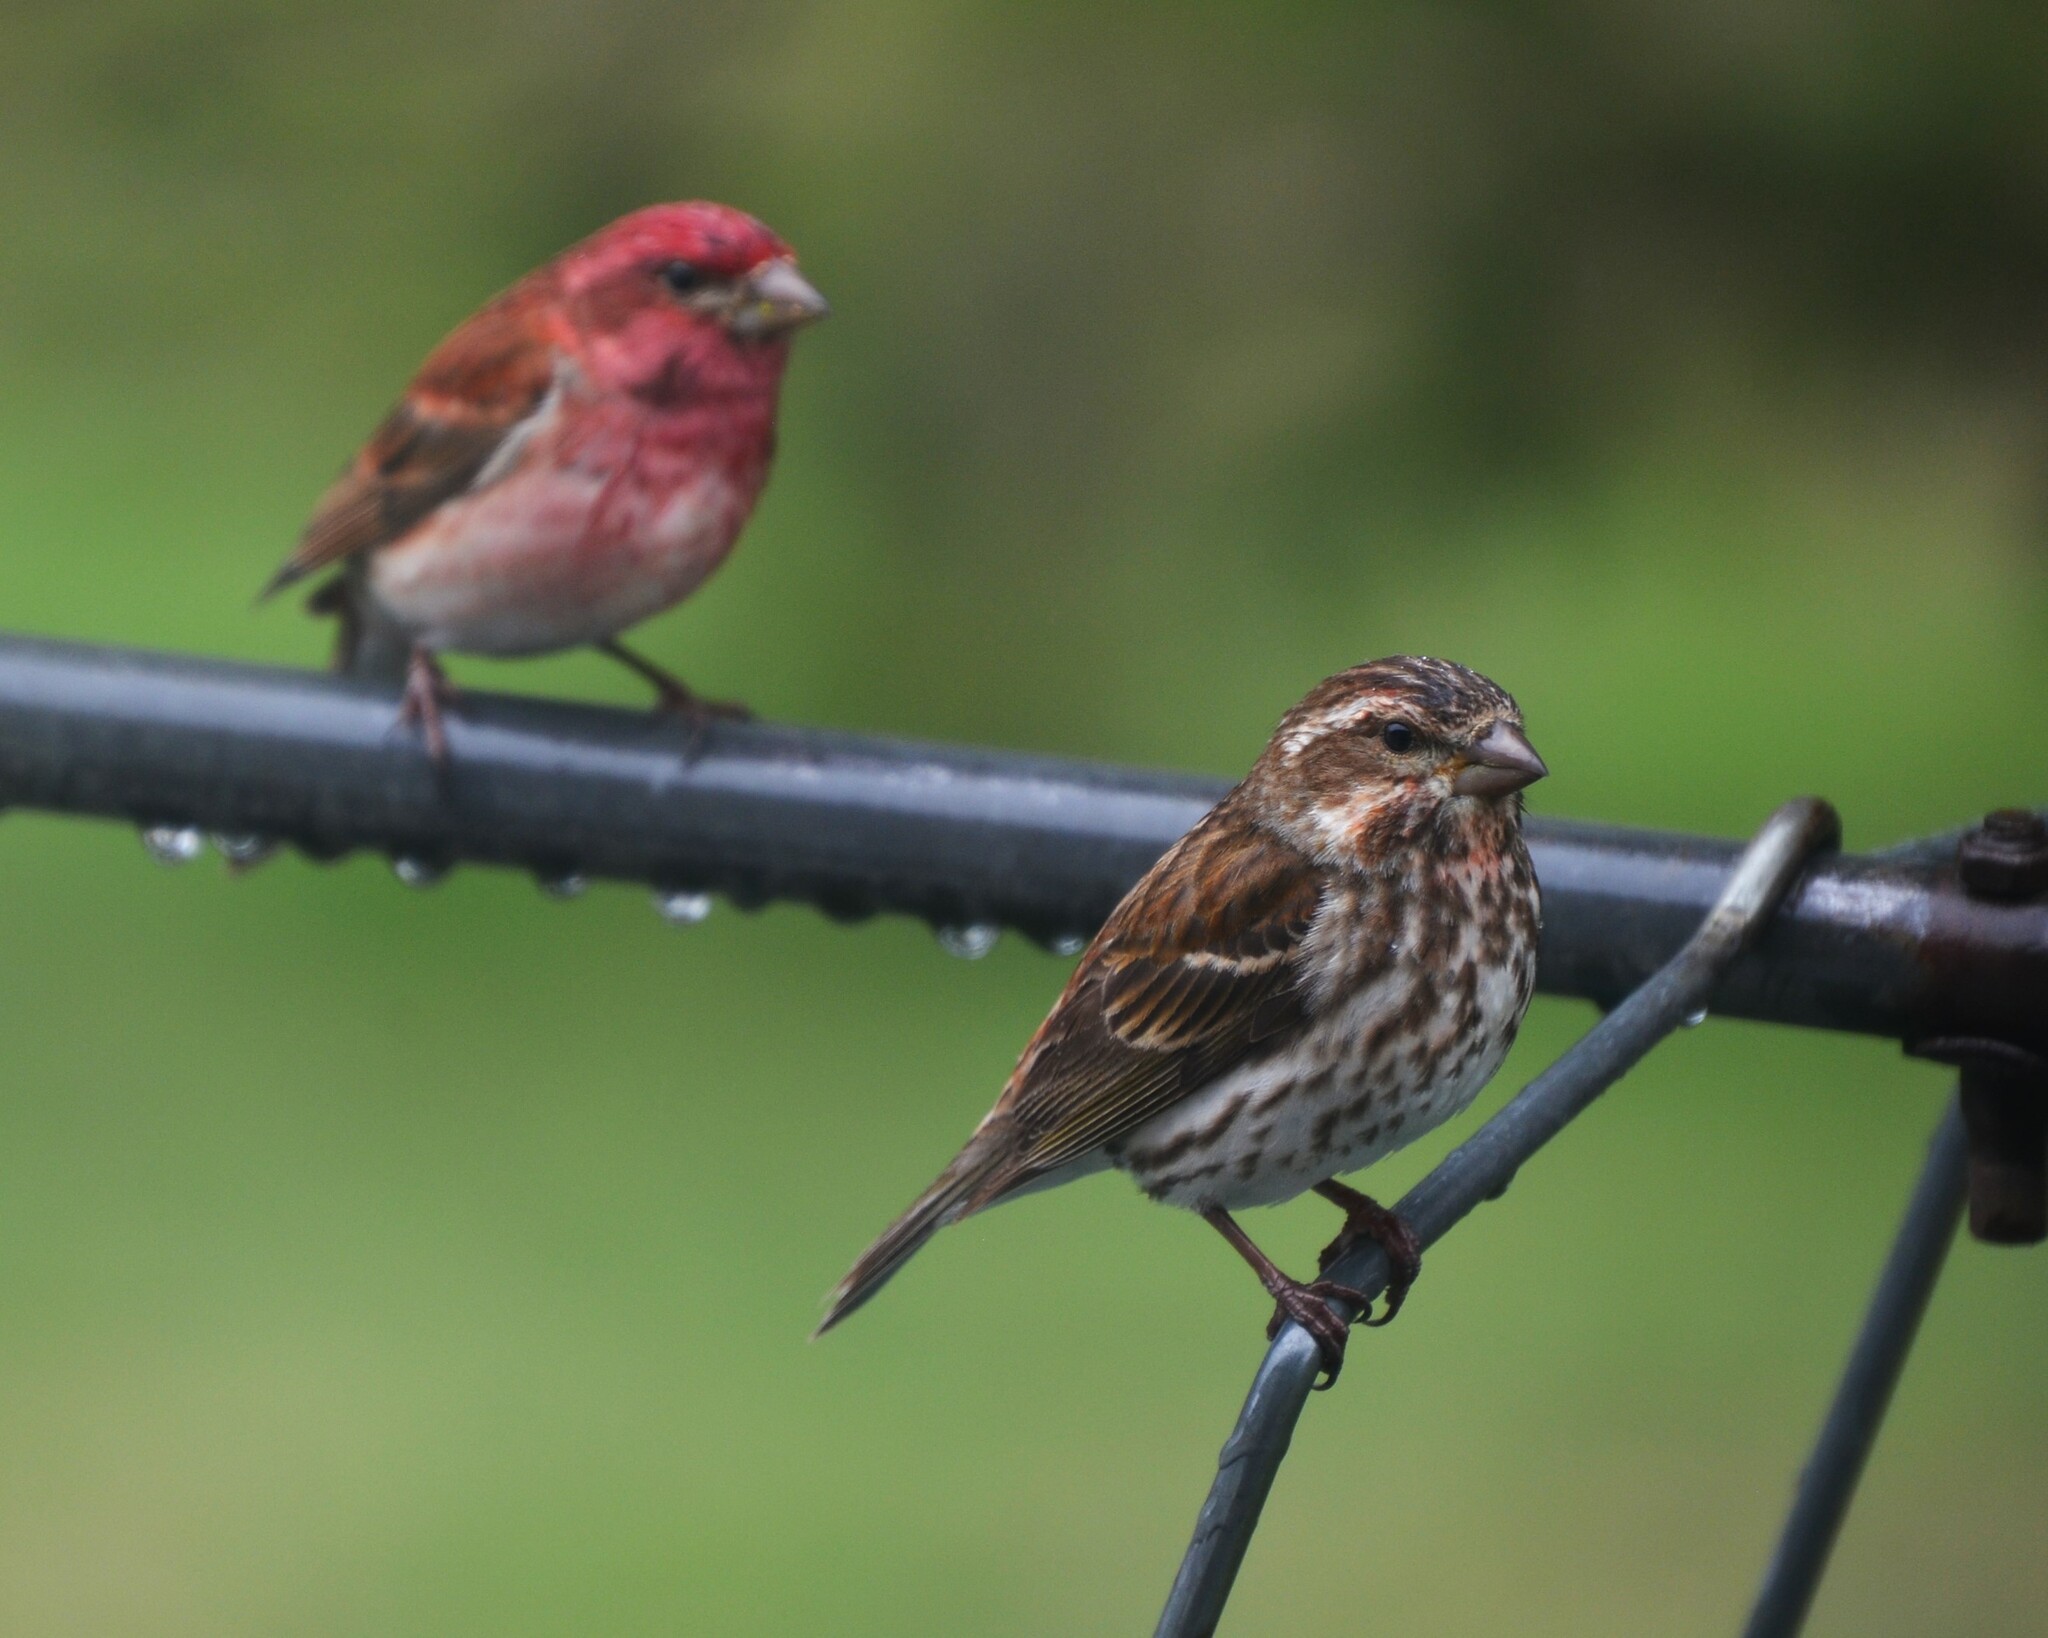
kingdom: Animalia
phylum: Chordata
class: Aves
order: Passeriformes
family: Fringillidae
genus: Haemorhous
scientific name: Haemorhous purpureus
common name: Purple finch
